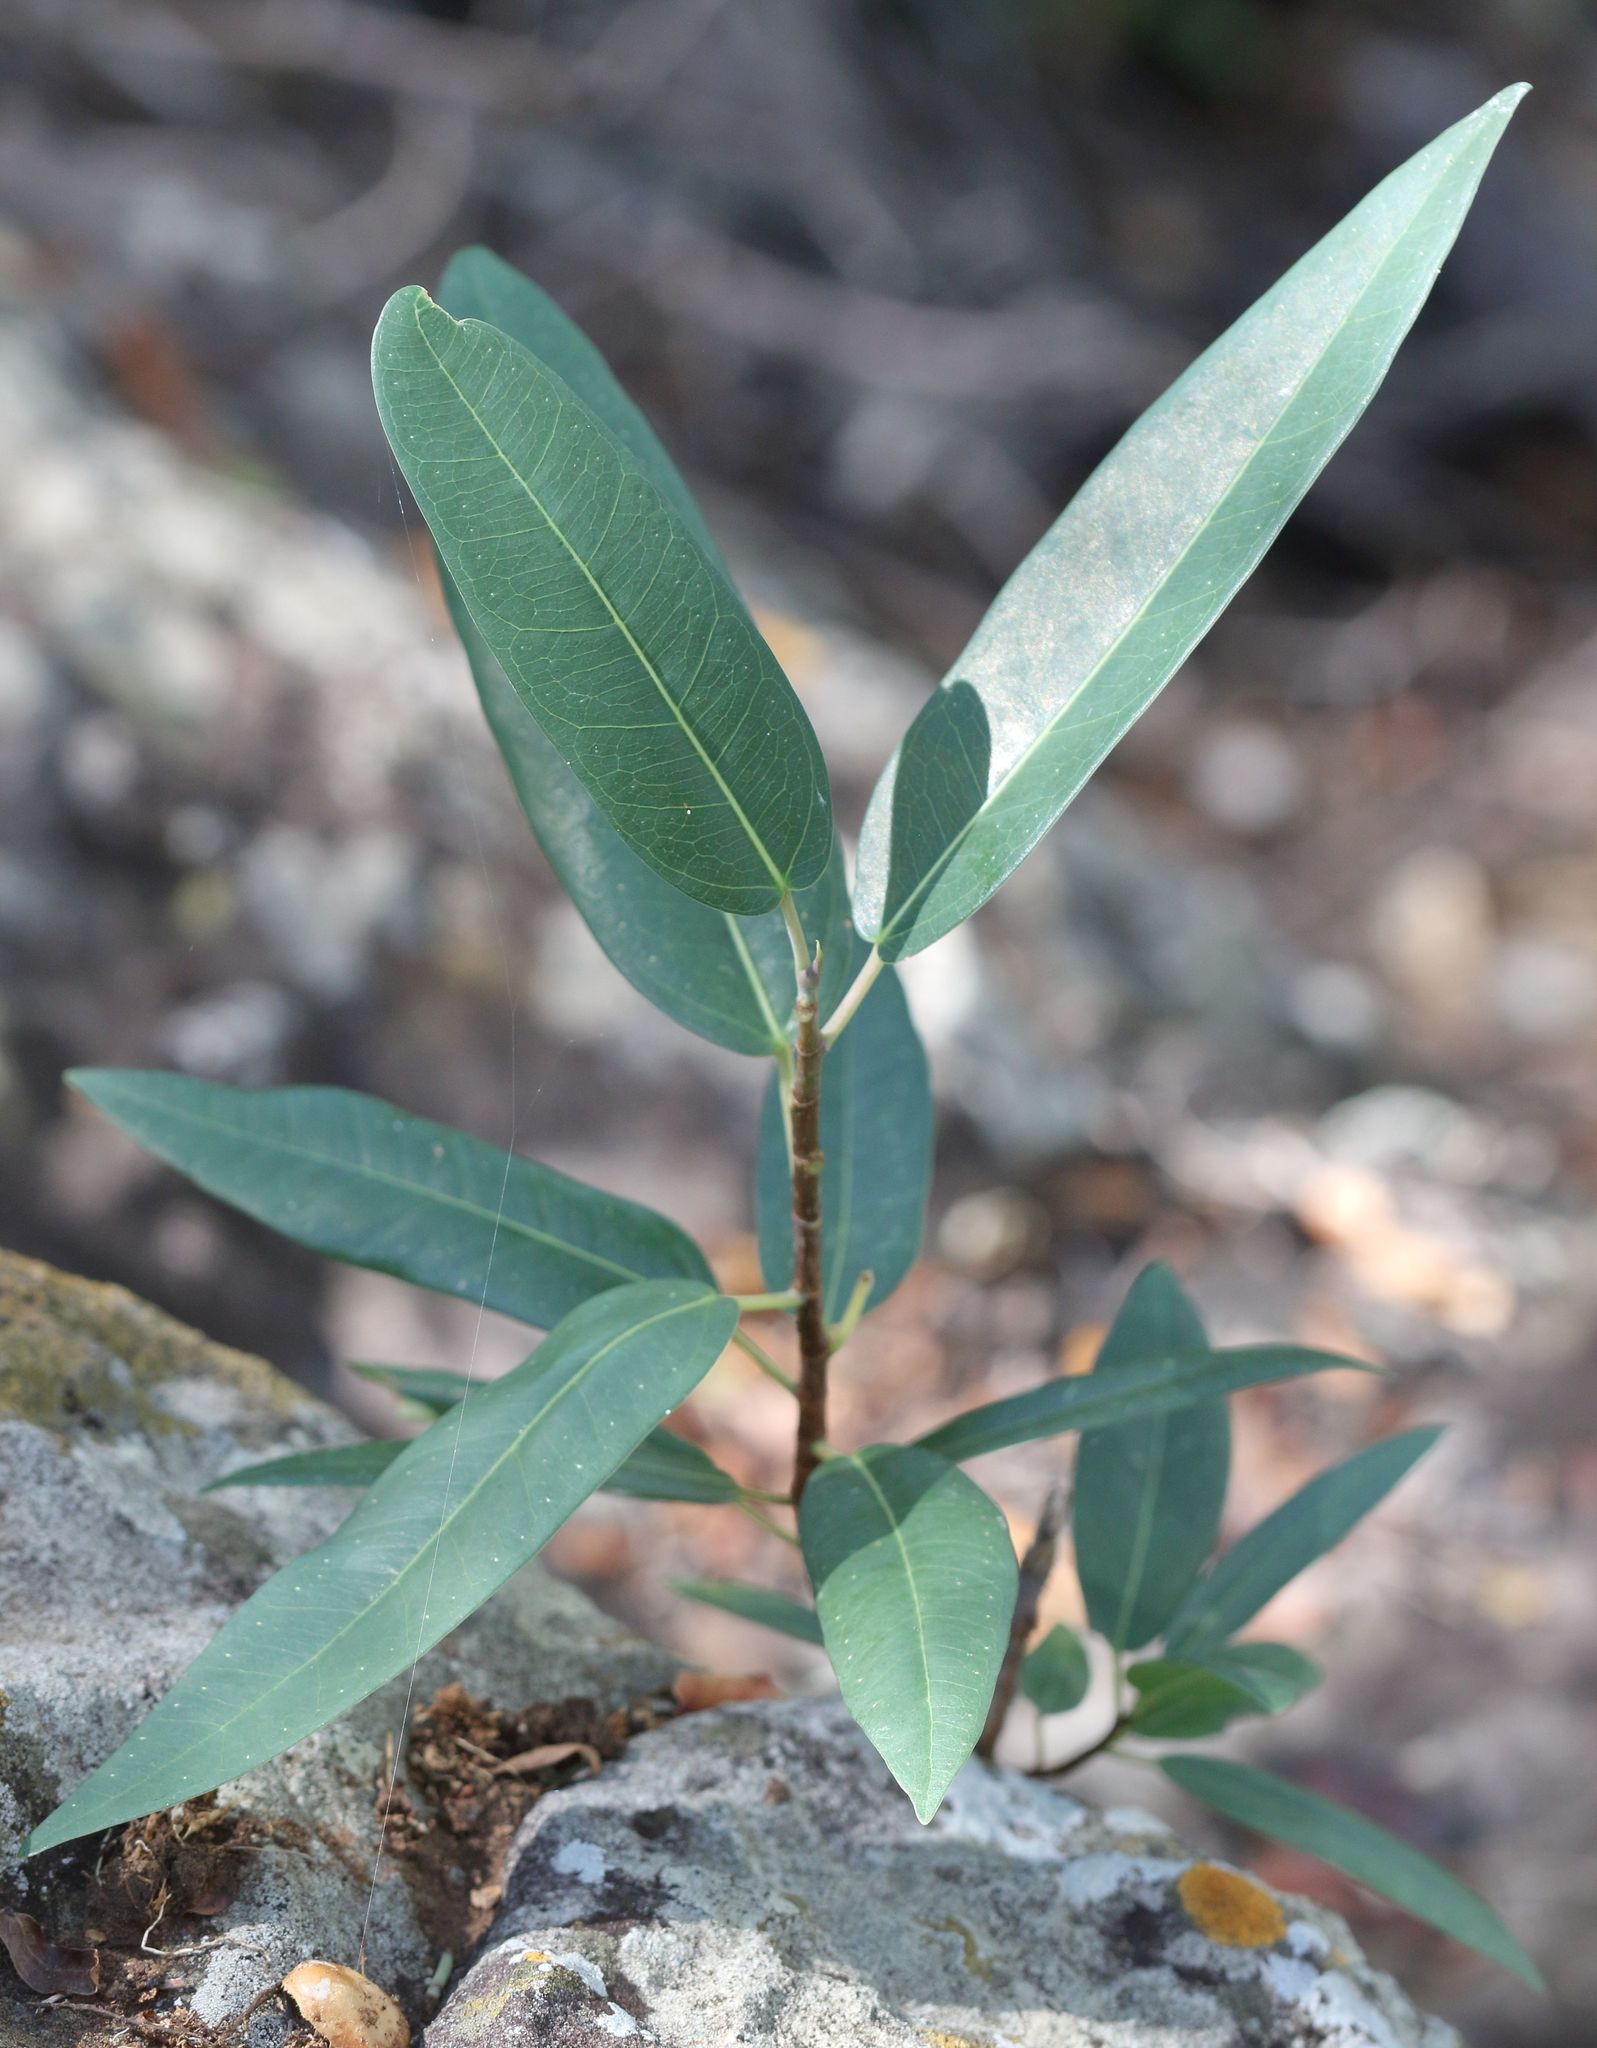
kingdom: Plantae
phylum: Tracheophyta
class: Magnoliopsida
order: Rosales
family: Moraceae
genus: Ficus
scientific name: Ficus salicifolia
